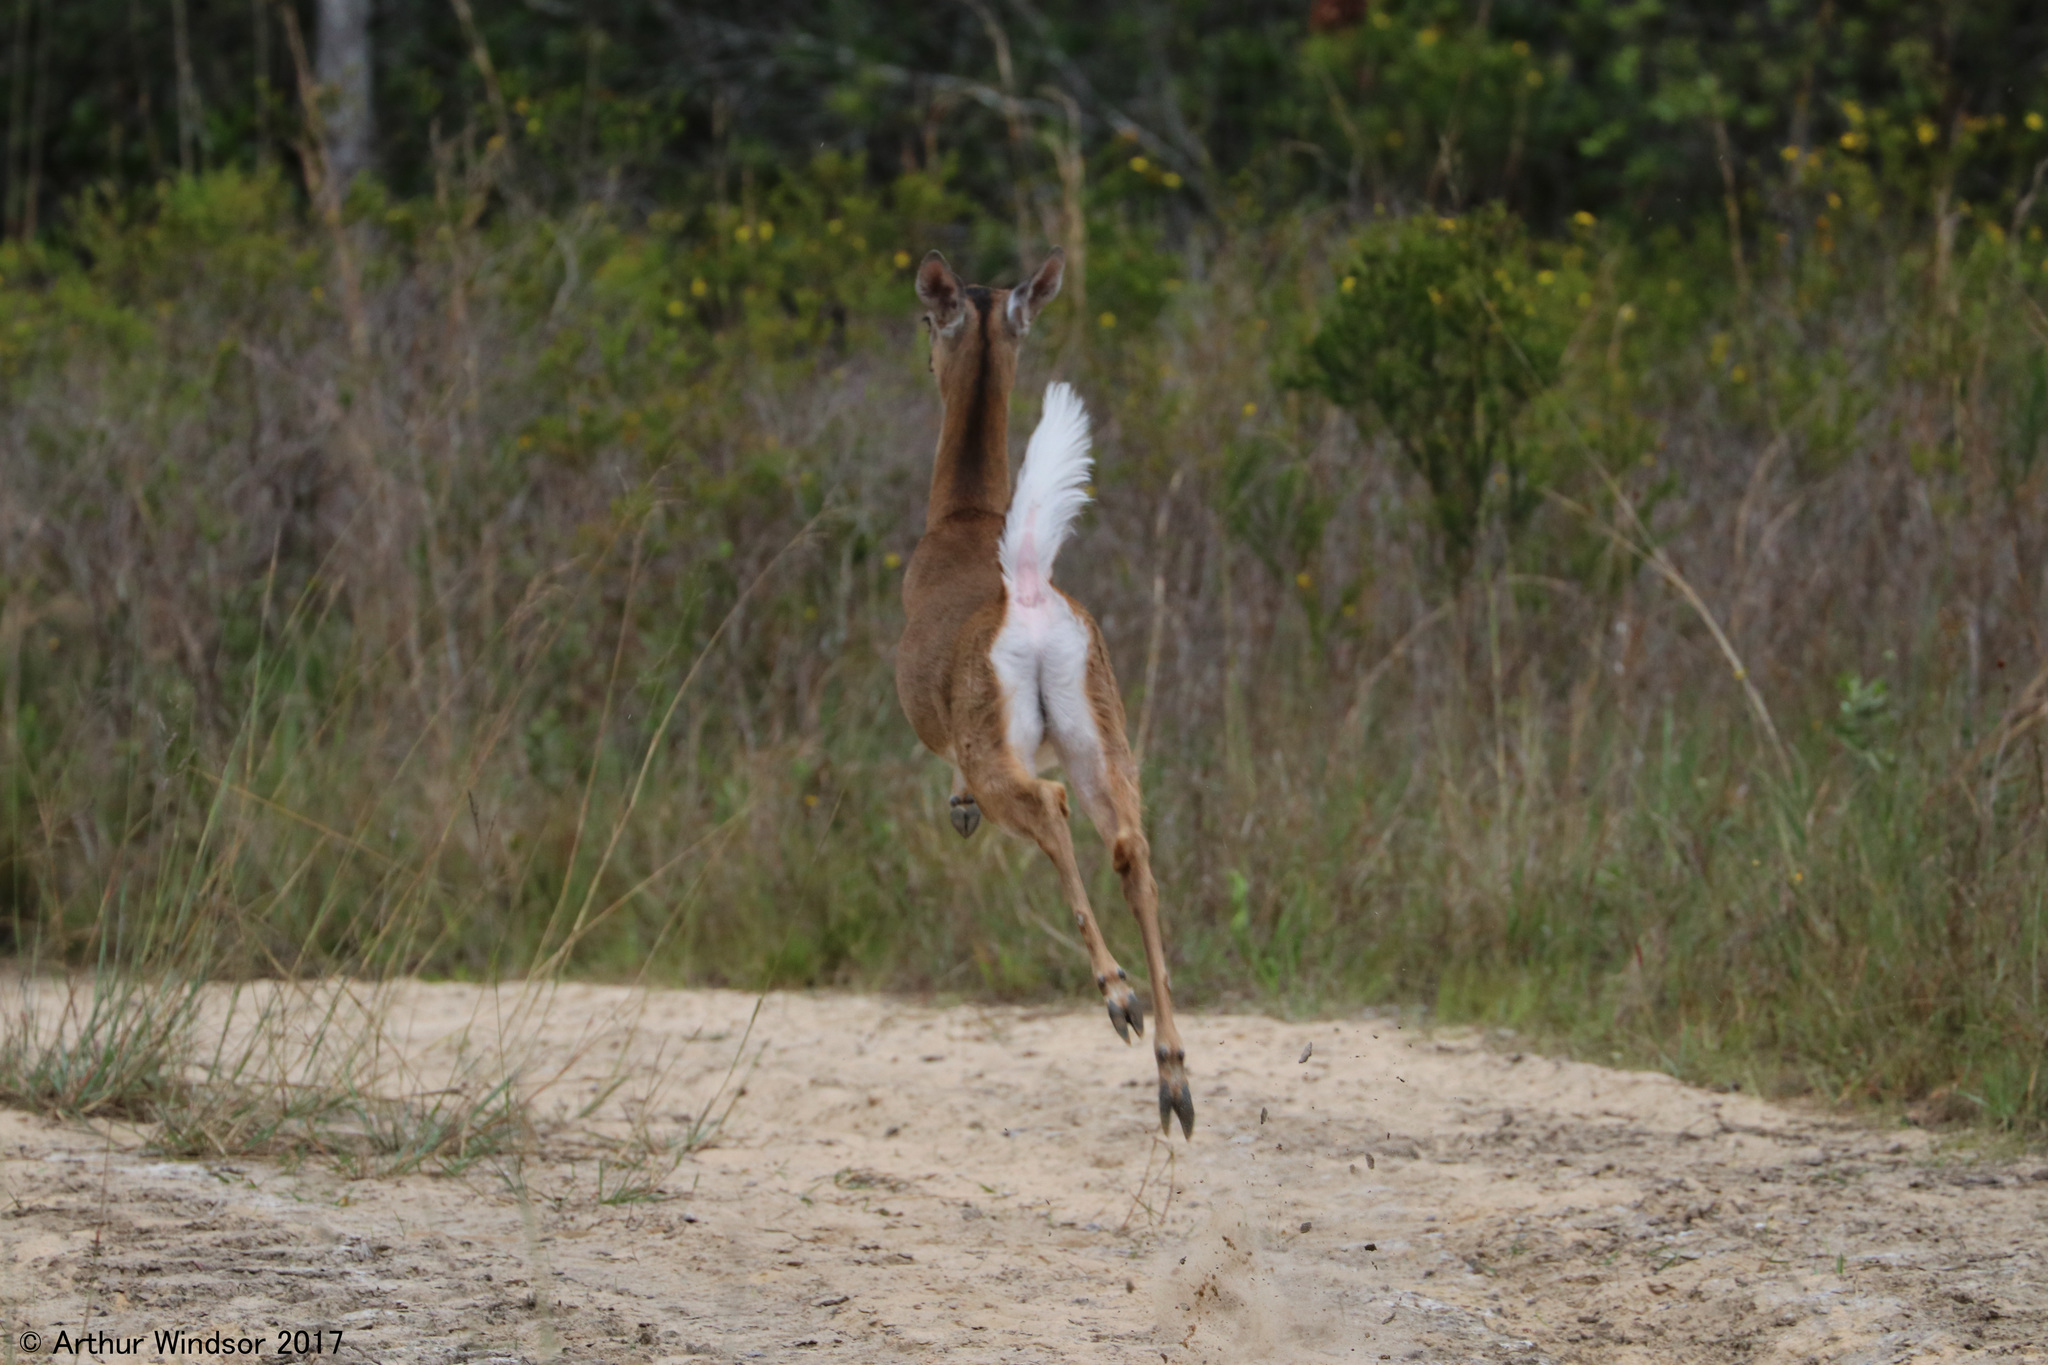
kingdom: Animalia
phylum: Chordata
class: Mammalia
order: Artiodactyla
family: Cervidae
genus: Odocoileus
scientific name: Odocoileus virginianus
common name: White-tailed deer
